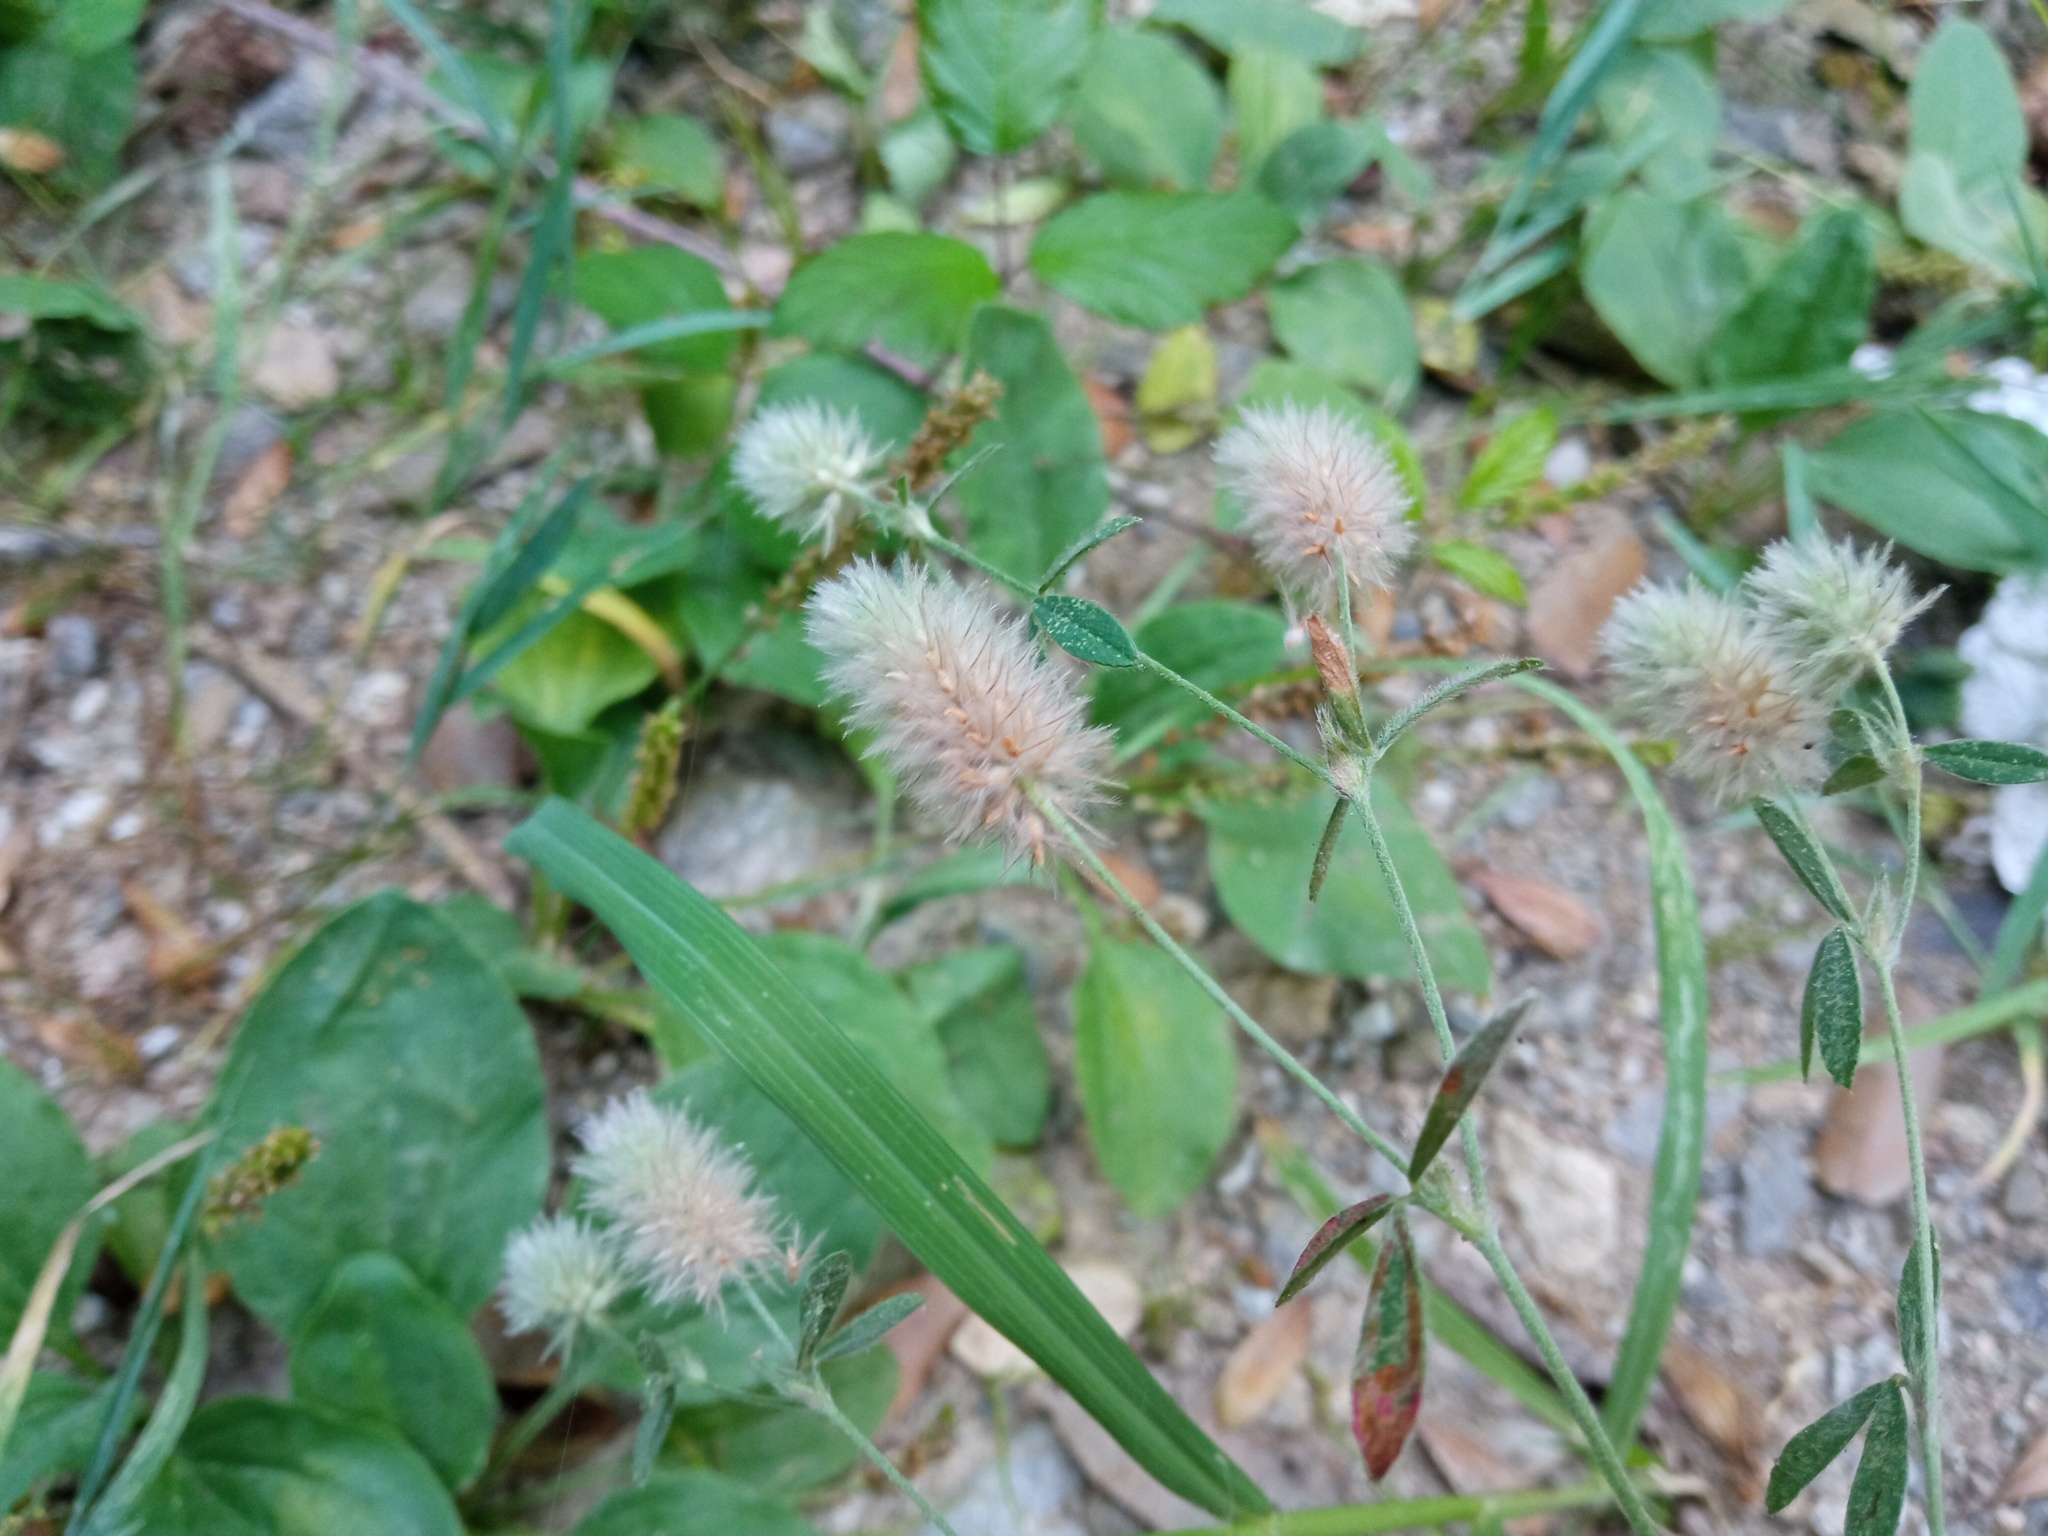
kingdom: Plantae
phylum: Tracheophyta
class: Magnoliopsida
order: Fabales
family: Fabaceae
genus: Trifolium
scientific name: Trifolium arvense
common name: Hare's-foot clover
